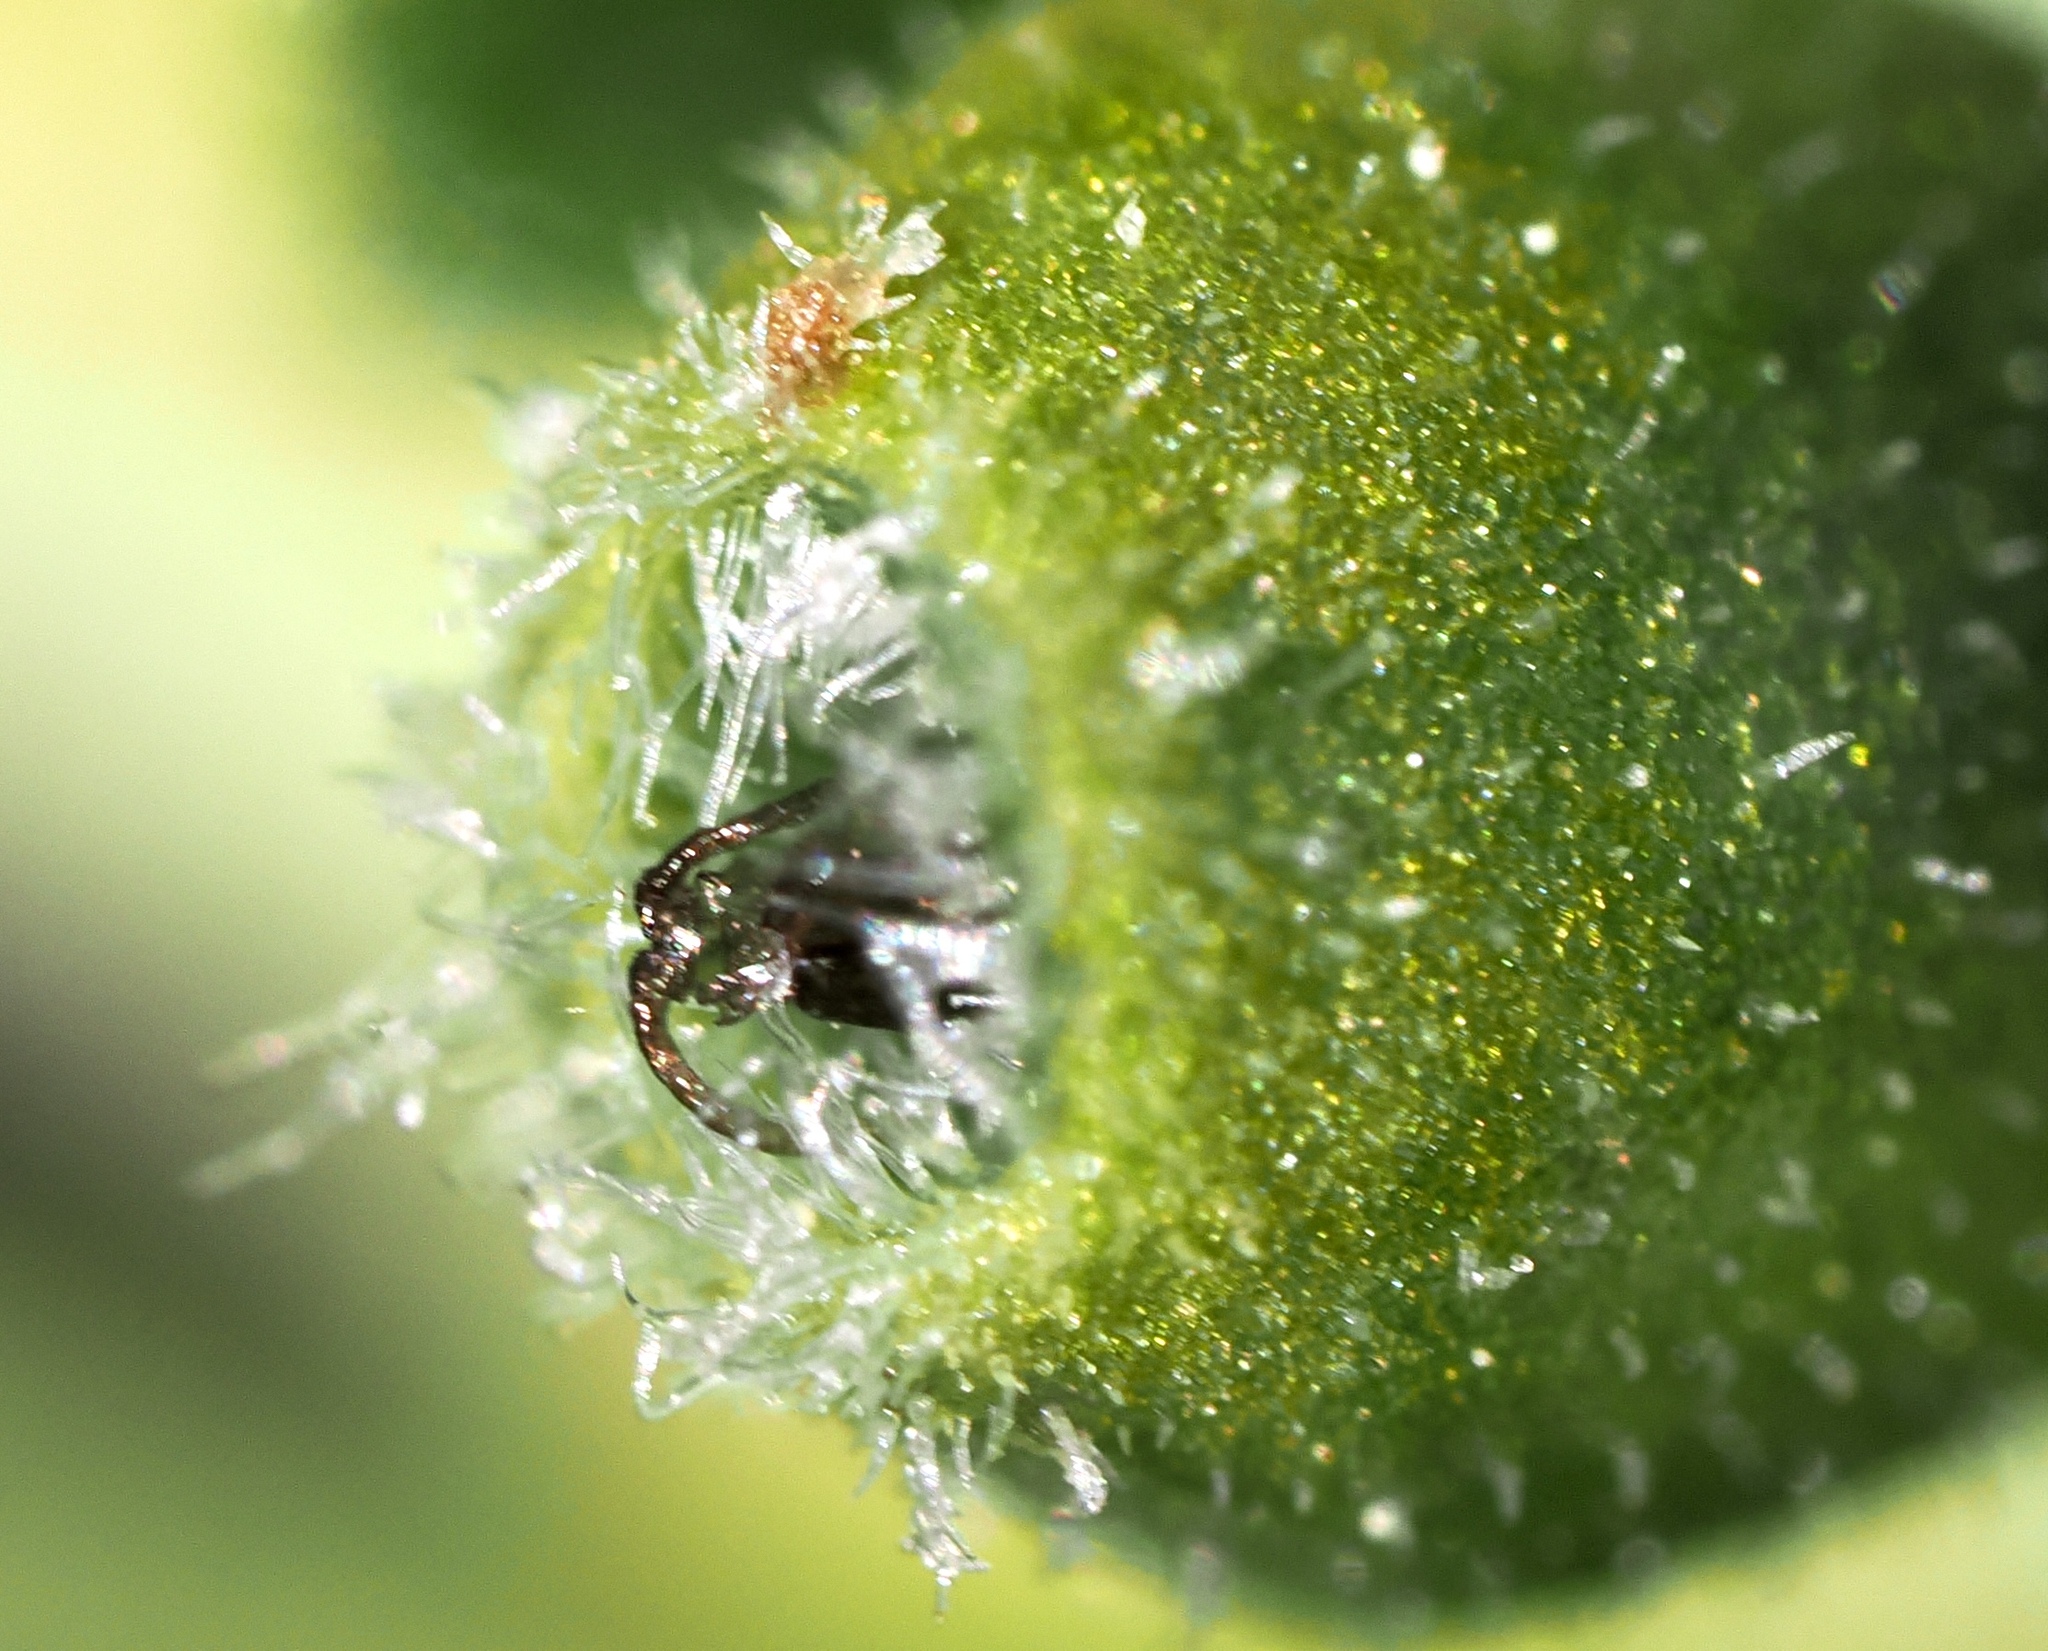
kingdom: Animalia
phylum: Arthropoda
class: Insecta
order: Diptera
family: Cecidomyiidae
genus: Rhopalomyia
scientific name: Rhopalomyia audibertiae
